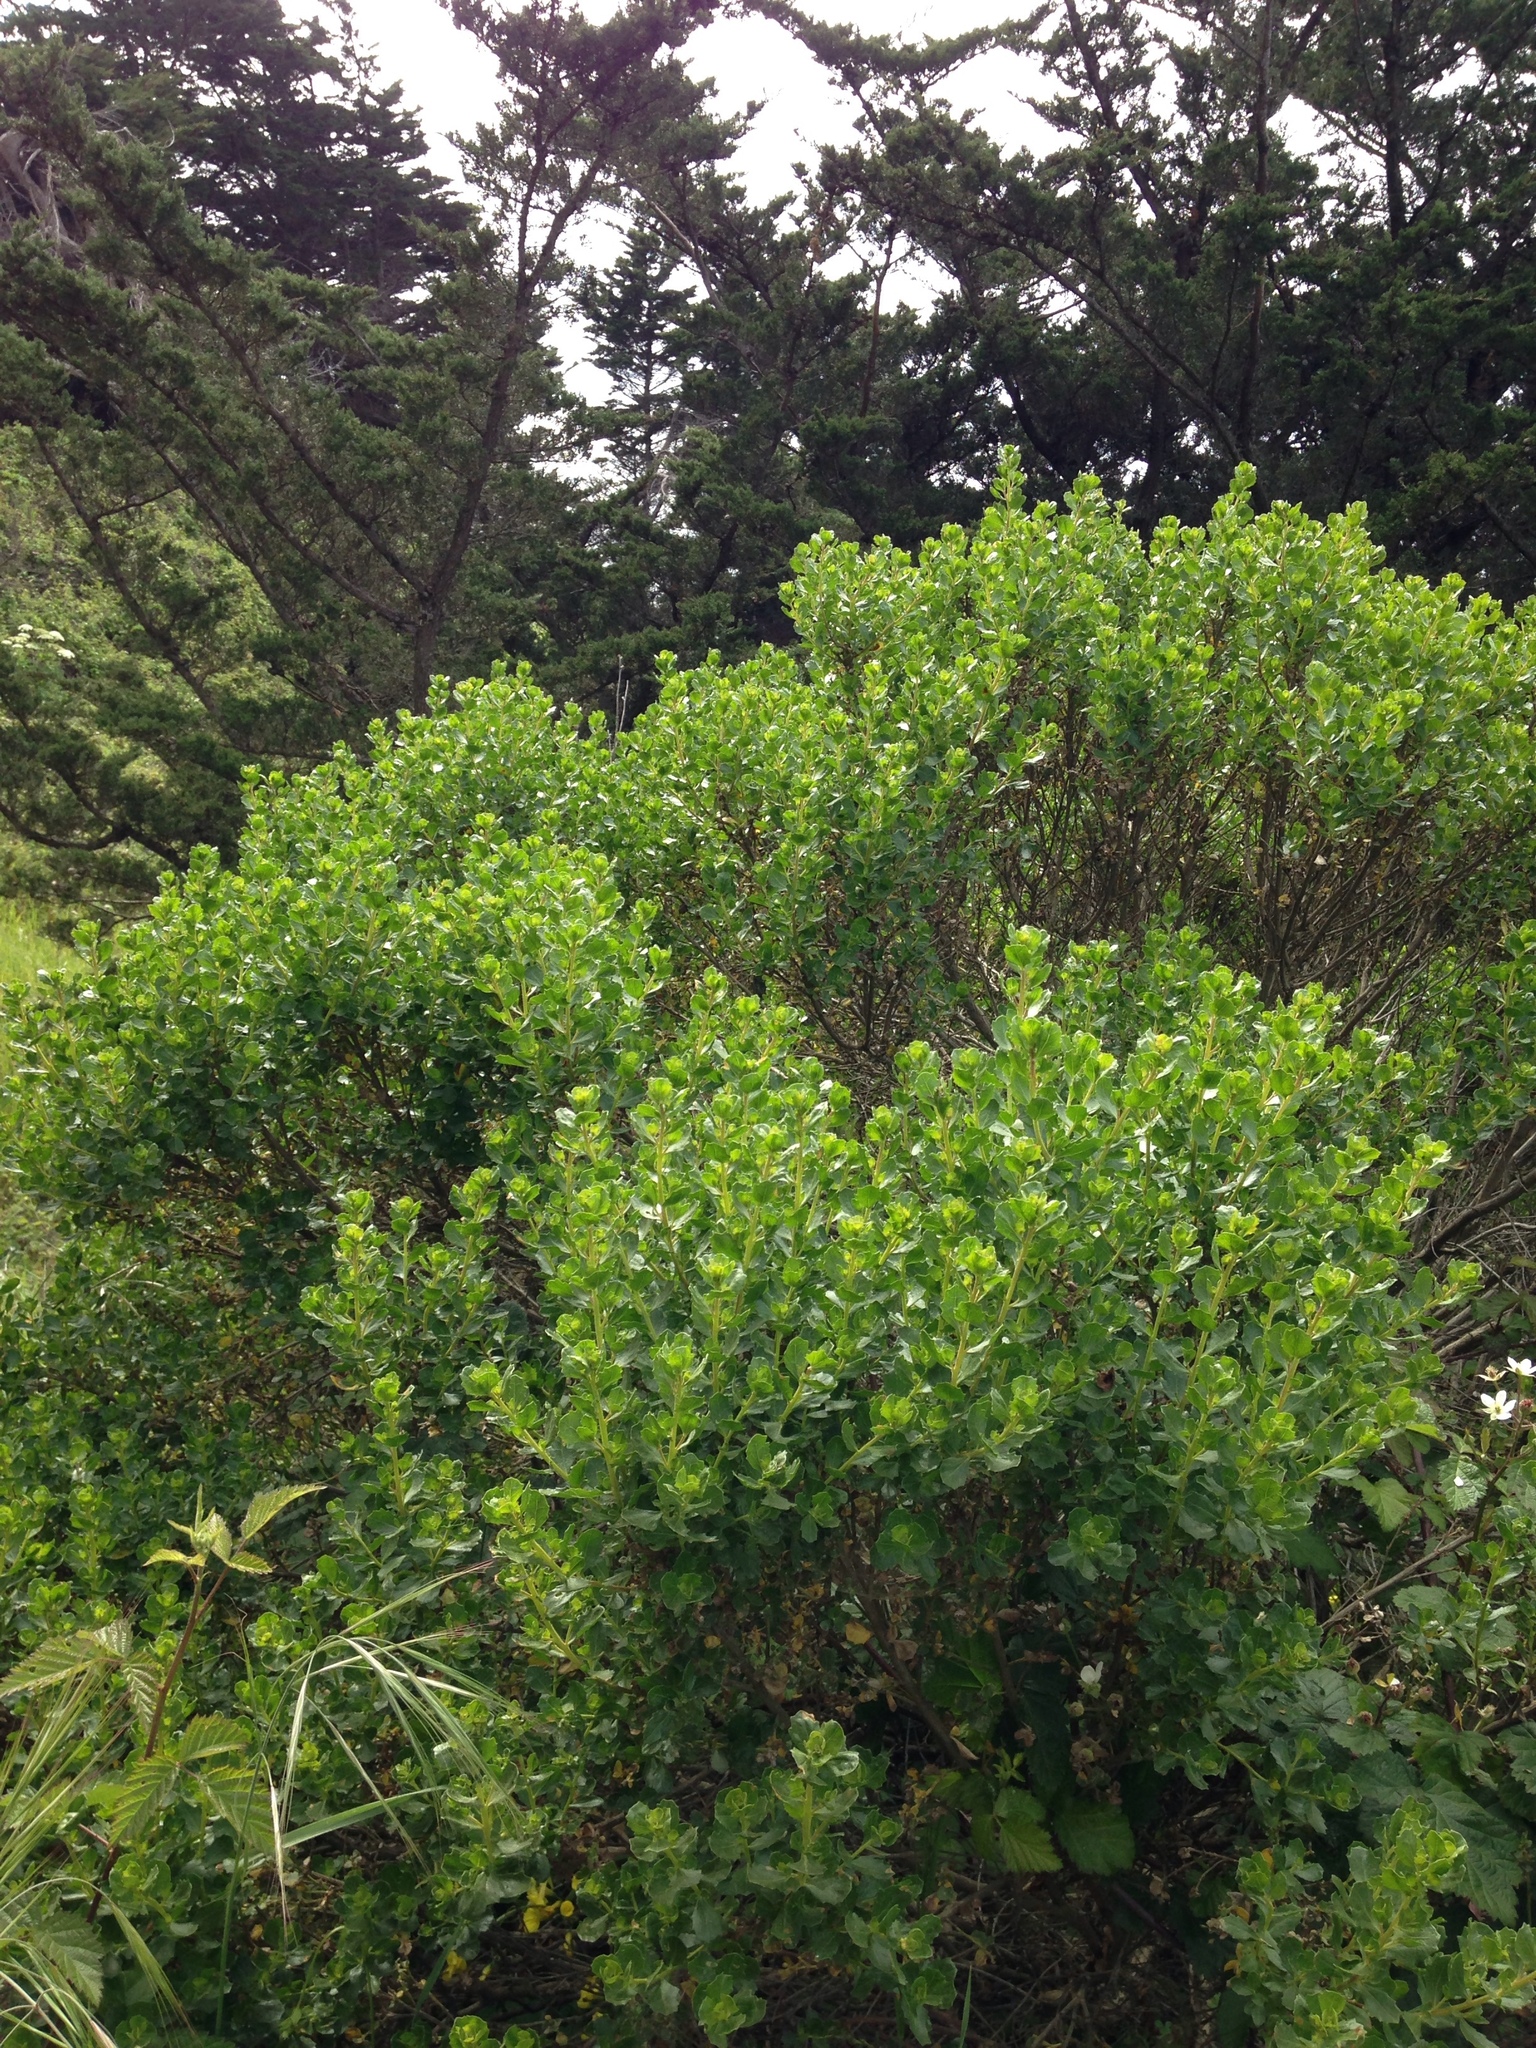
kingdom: Plantae
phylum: Tracheophyta
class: Magnoliopsida
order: Asterales
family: Asteraceae
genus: Baccharis
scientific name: Baccharis pilularis
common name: Coyotebrush
